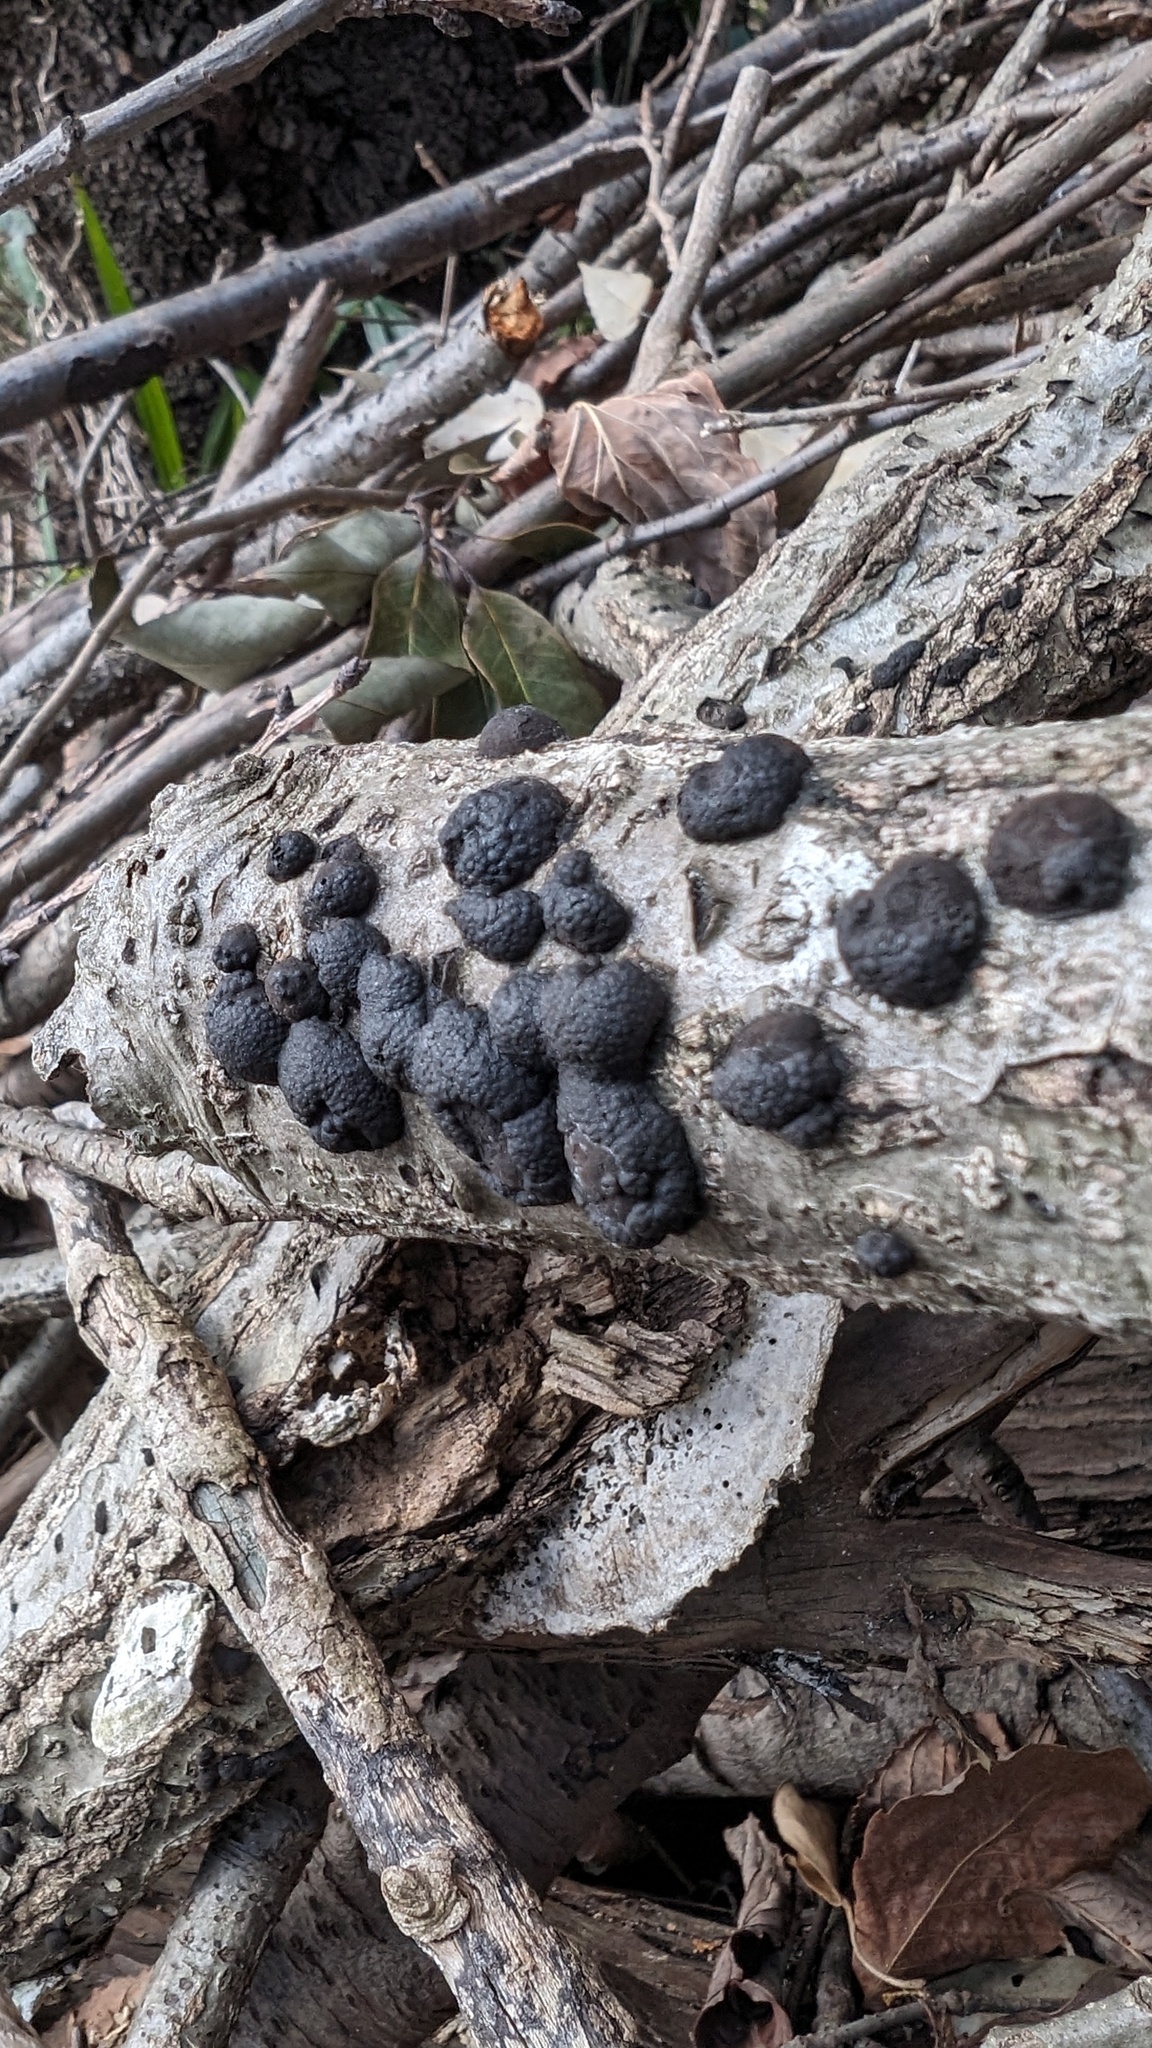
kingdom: Fungi
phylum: Ascomycota
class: Sordariomycetes
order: Xylariales
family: Hypoxylaceae
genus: Annulohypoxylon
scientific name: Annulohypoxylon truncatum
